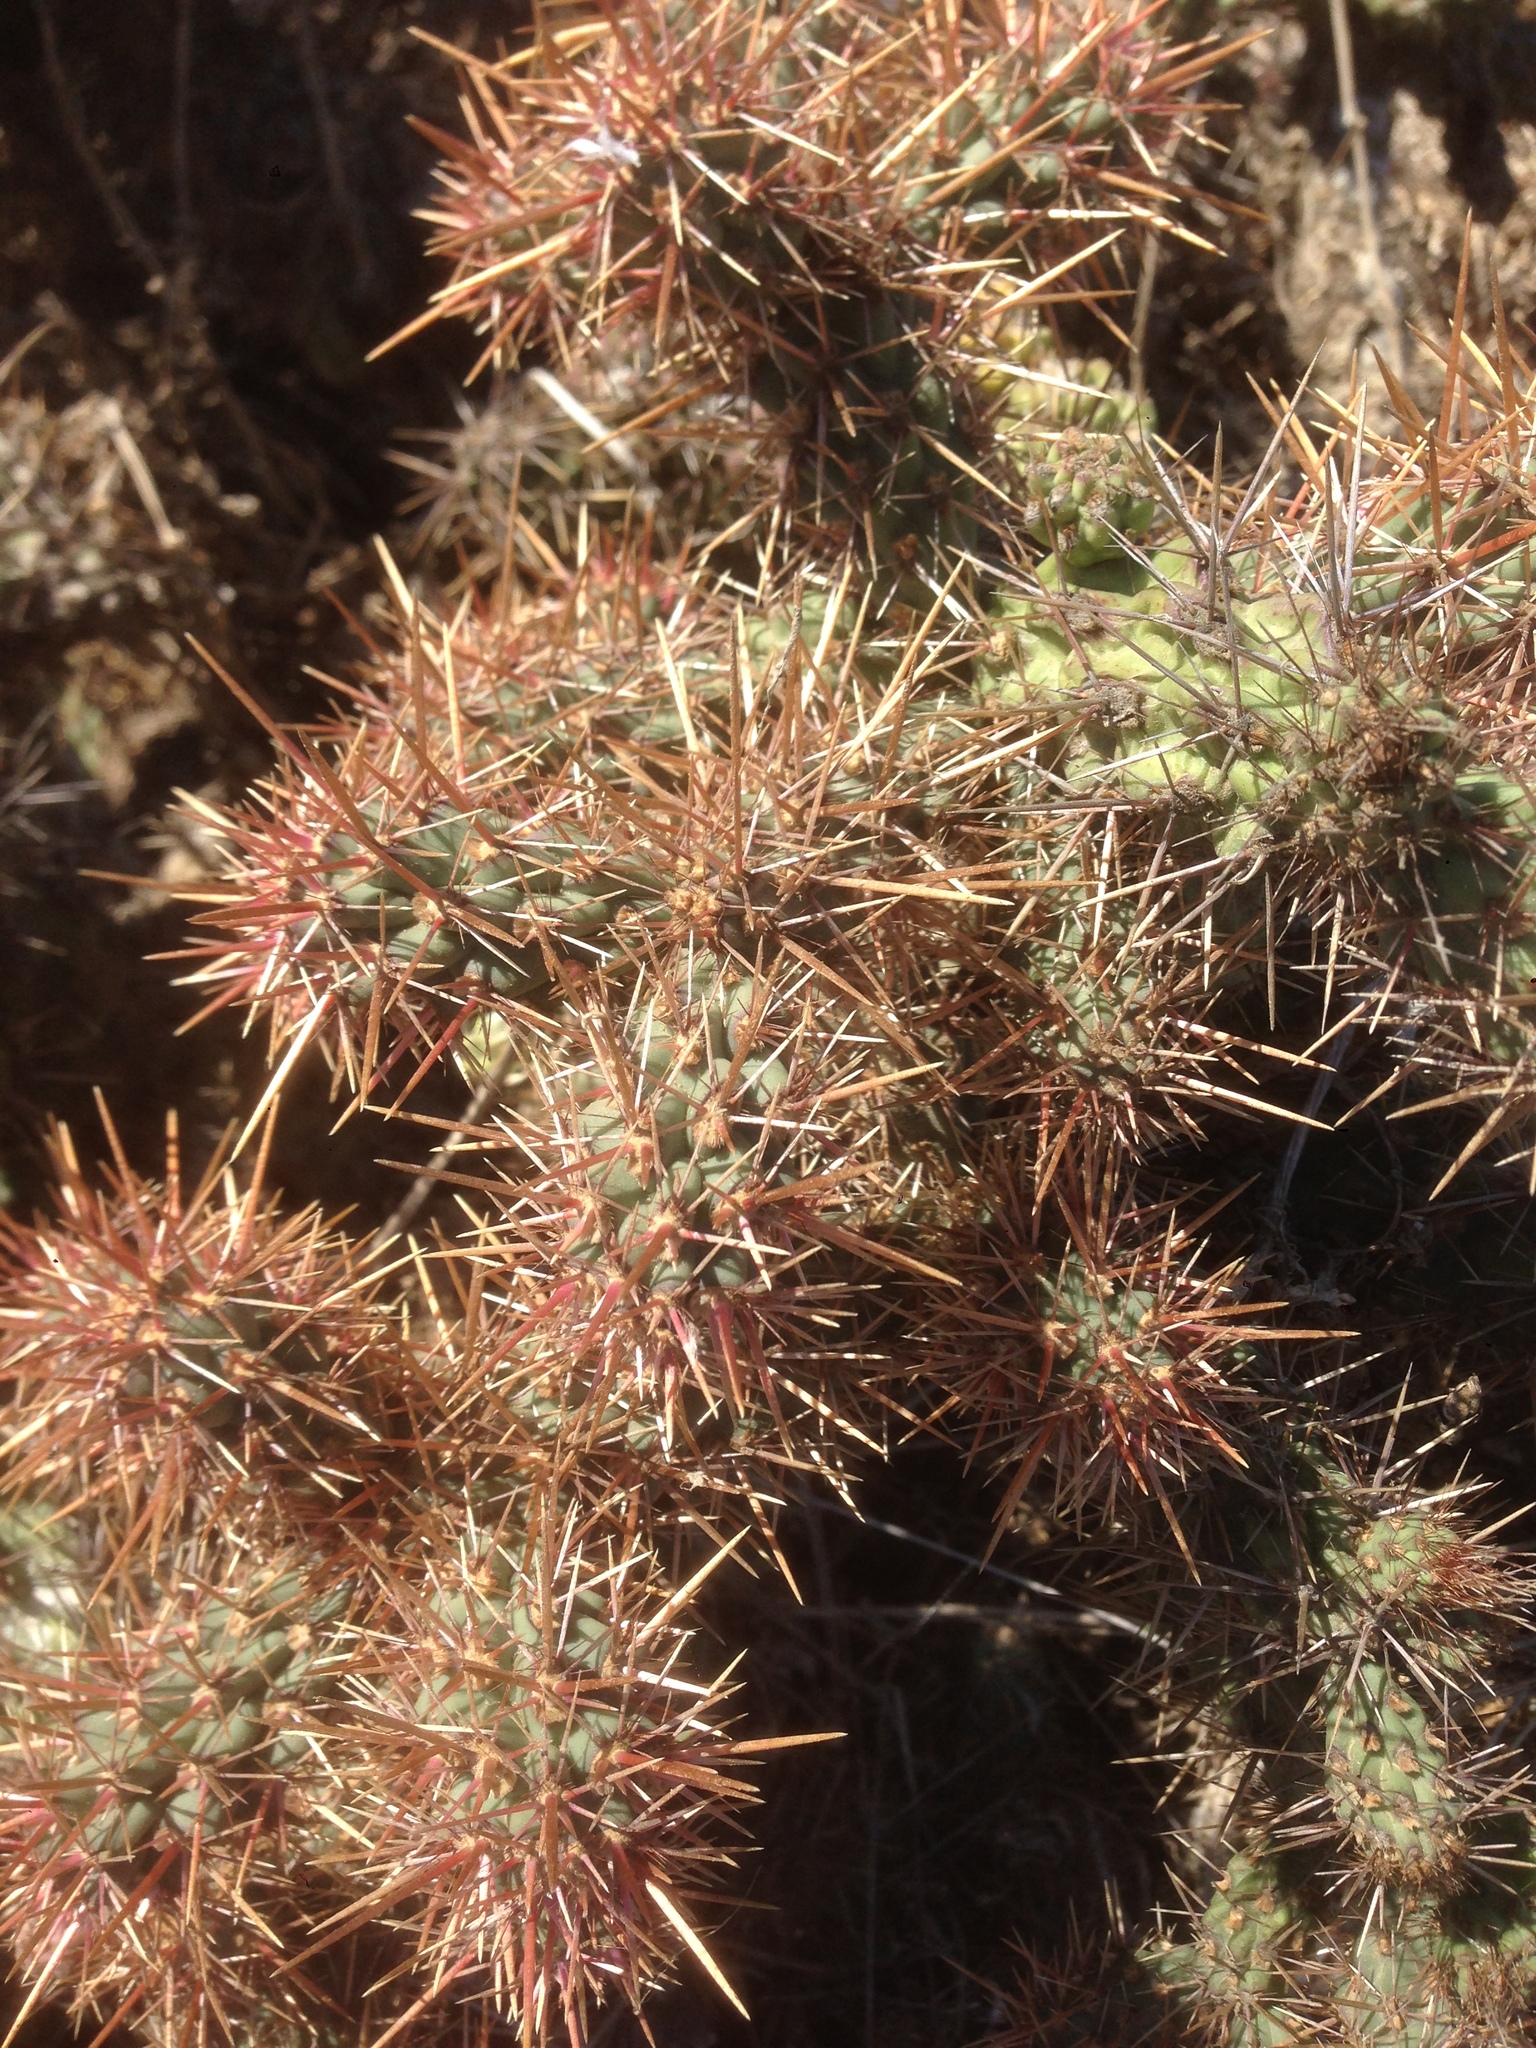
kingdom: Plantae
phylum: Tracheophyta
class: Magnoliopsida
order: Caryophyllales
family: Cactaceae
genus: Cylindropuntia
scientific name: Cylindropuntia prolifera
